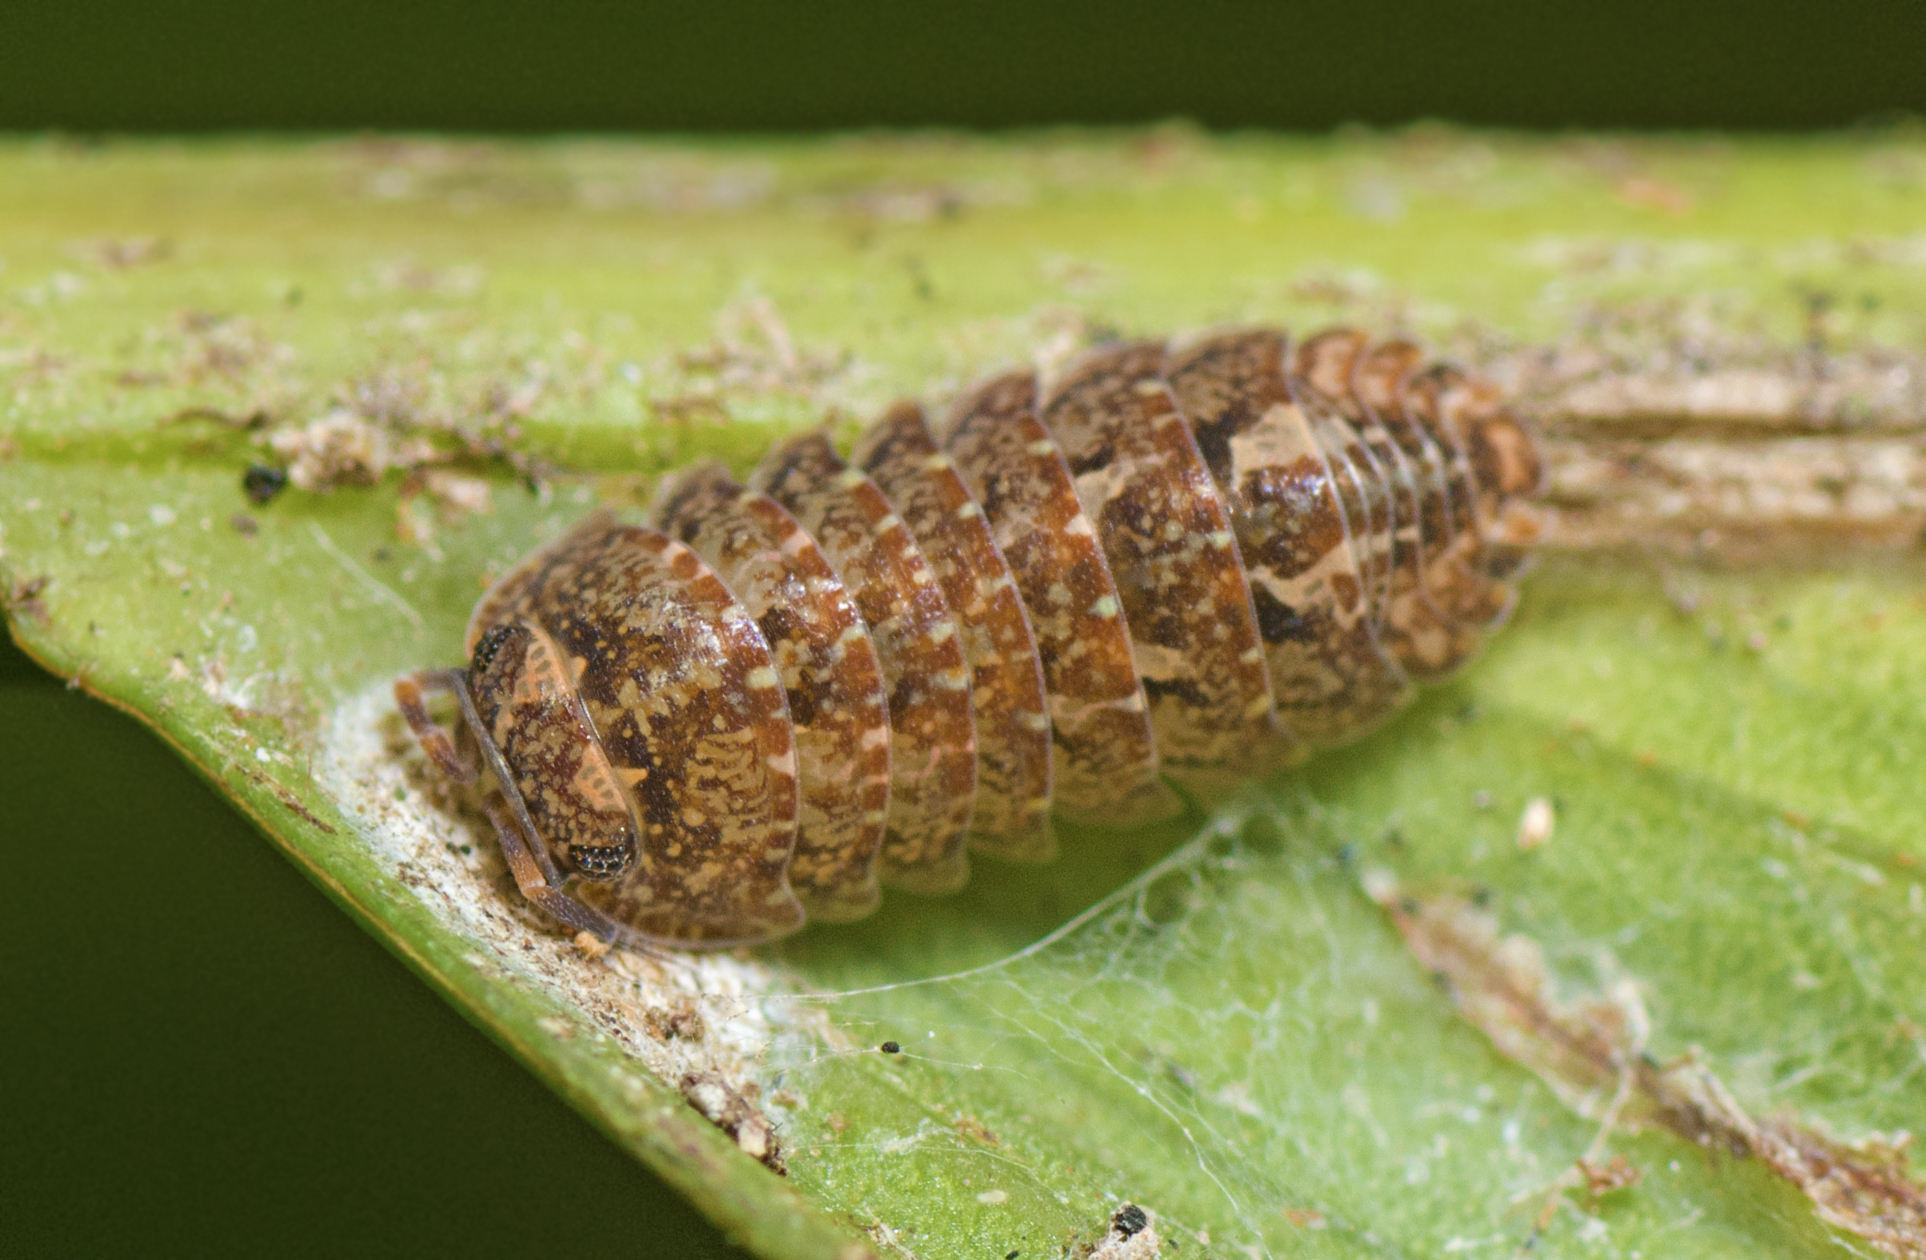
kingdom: Animalia
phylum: Arthropoda
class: Malacostraca
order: Isopoda
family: Armadillidae
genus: Cubaris
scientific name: Cubaris marmorata
